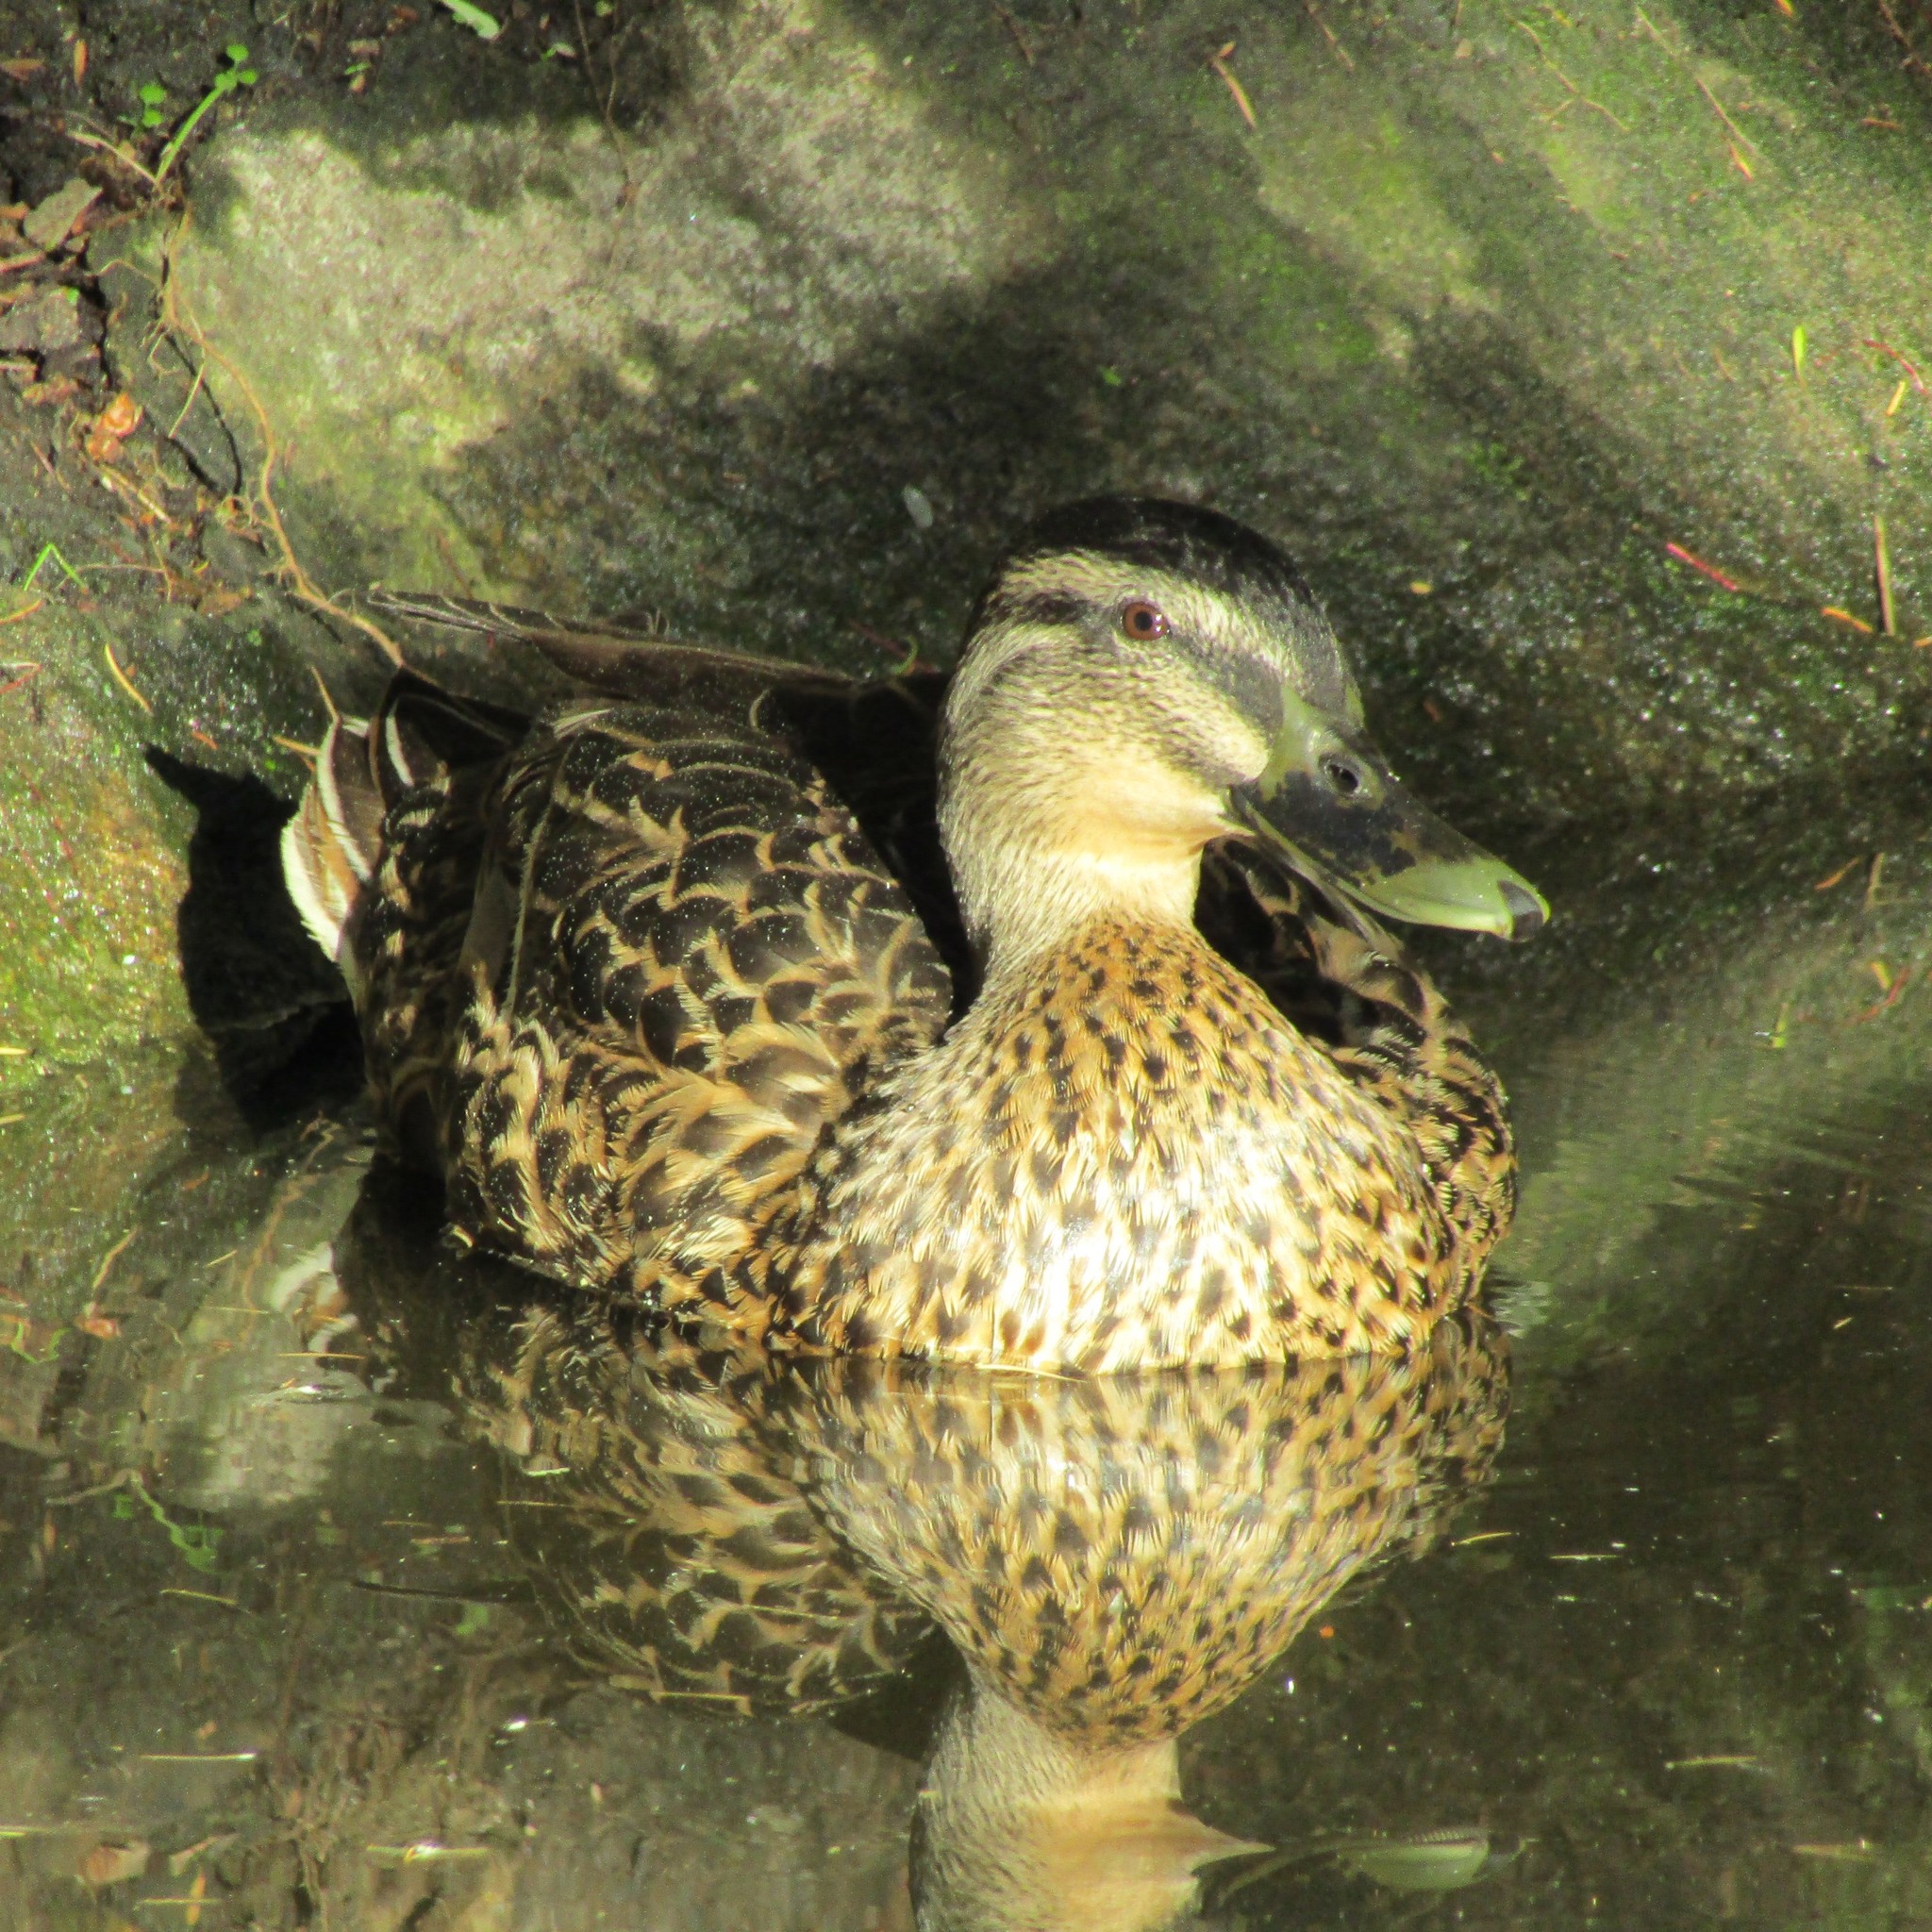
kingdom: Animalia
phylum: Chordata
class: Aves
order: Anseriformes
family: Anatidae
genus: Anas
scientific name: Anas
